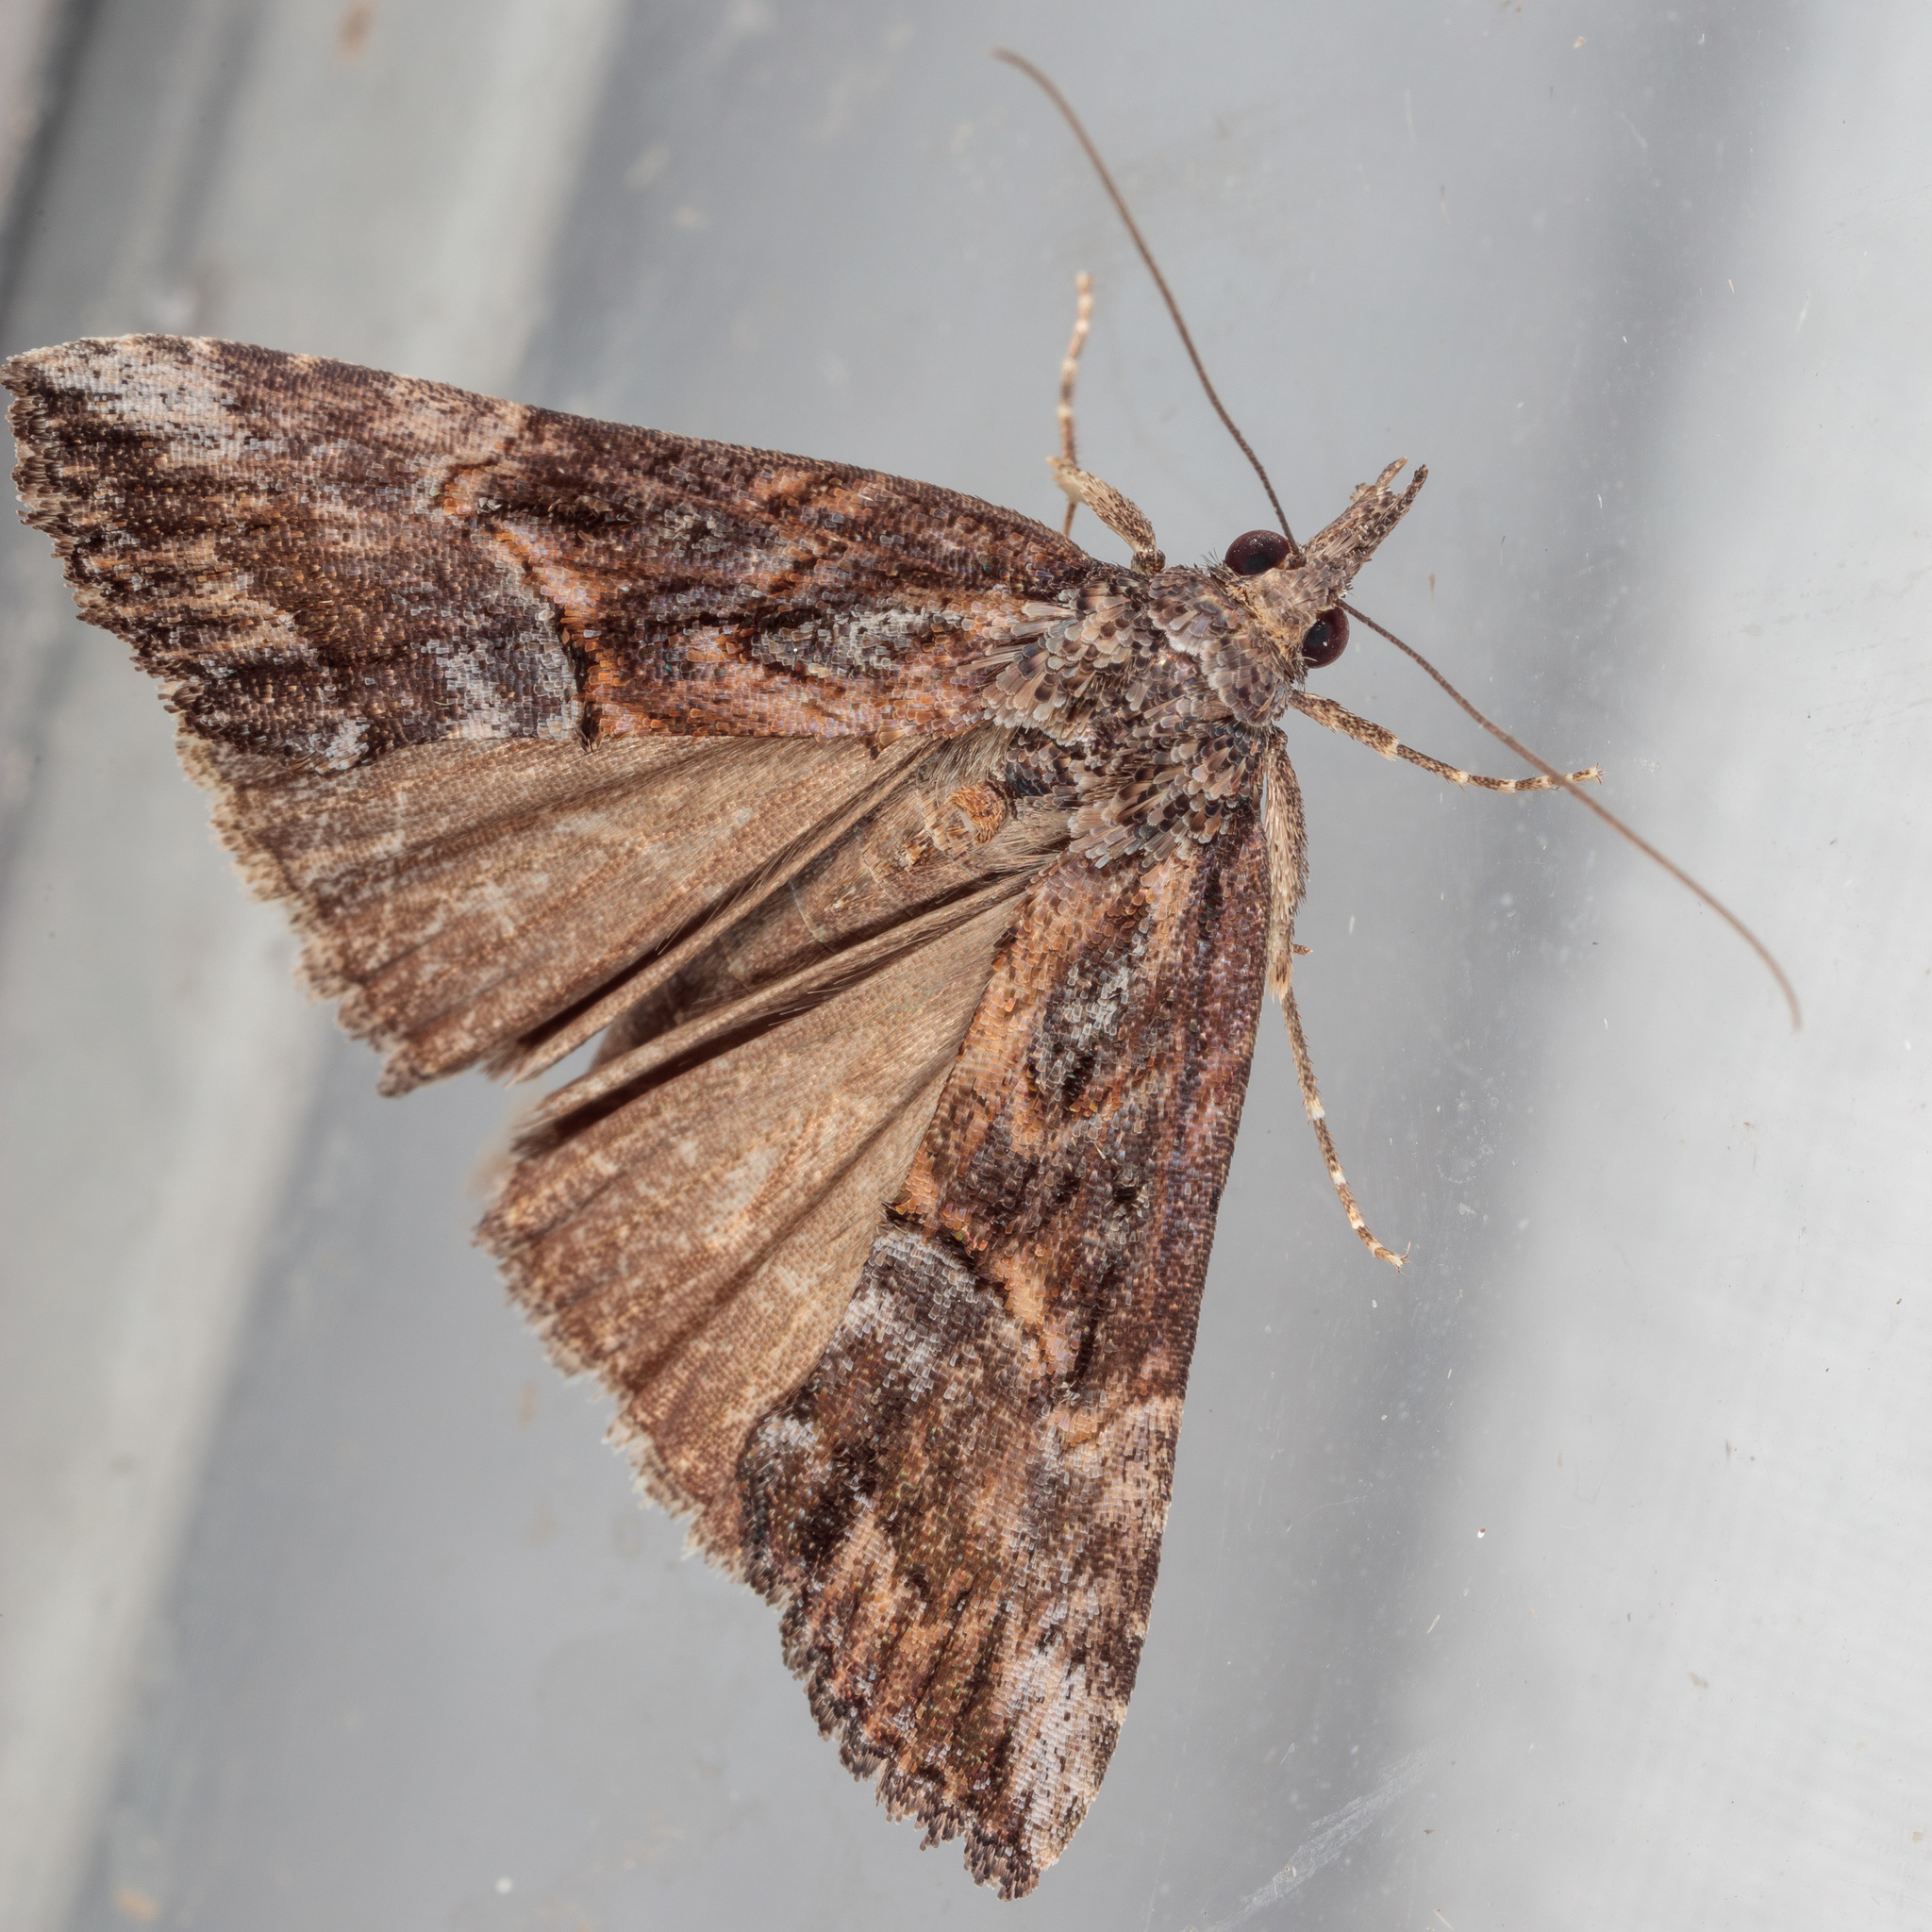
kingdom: Animalia
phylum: Arthropoda
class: Insecta
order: Lepidoptera
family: Erebidae
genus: Hypena
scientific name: Hypena scabra
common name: Green cloverworm
